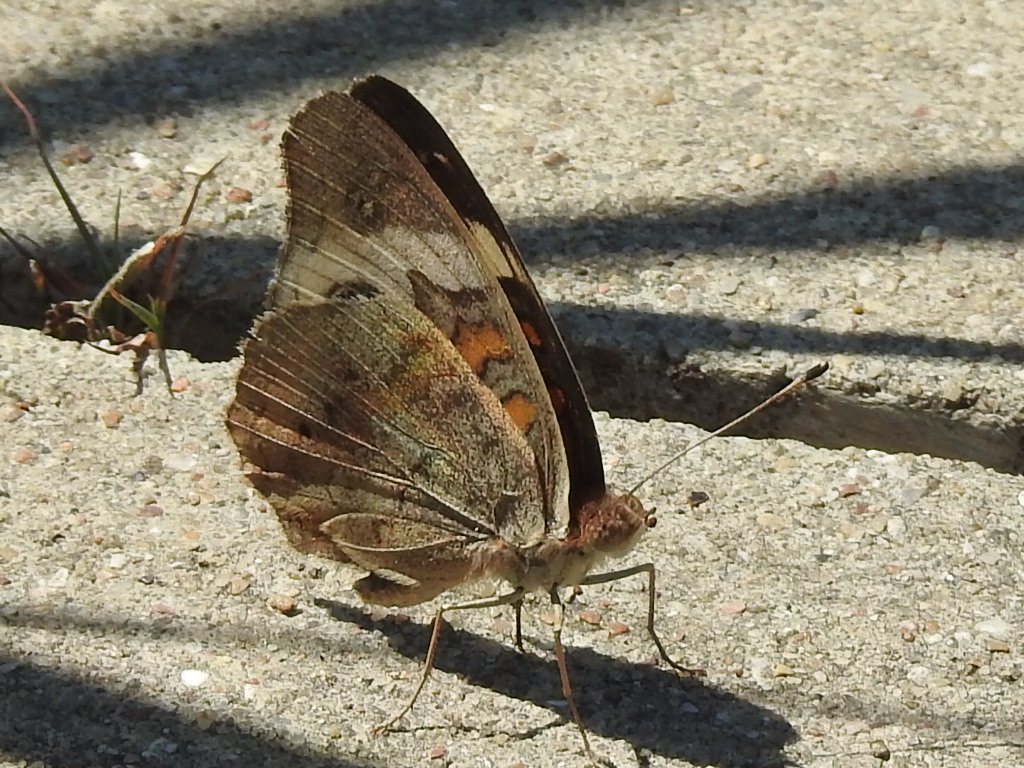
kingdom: Animalia
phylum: Arthropoda
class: Insecta
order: Lepidoptera
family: Nymphalidae
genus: Junonia
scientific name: Junonia coenia
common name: Common buckeye
